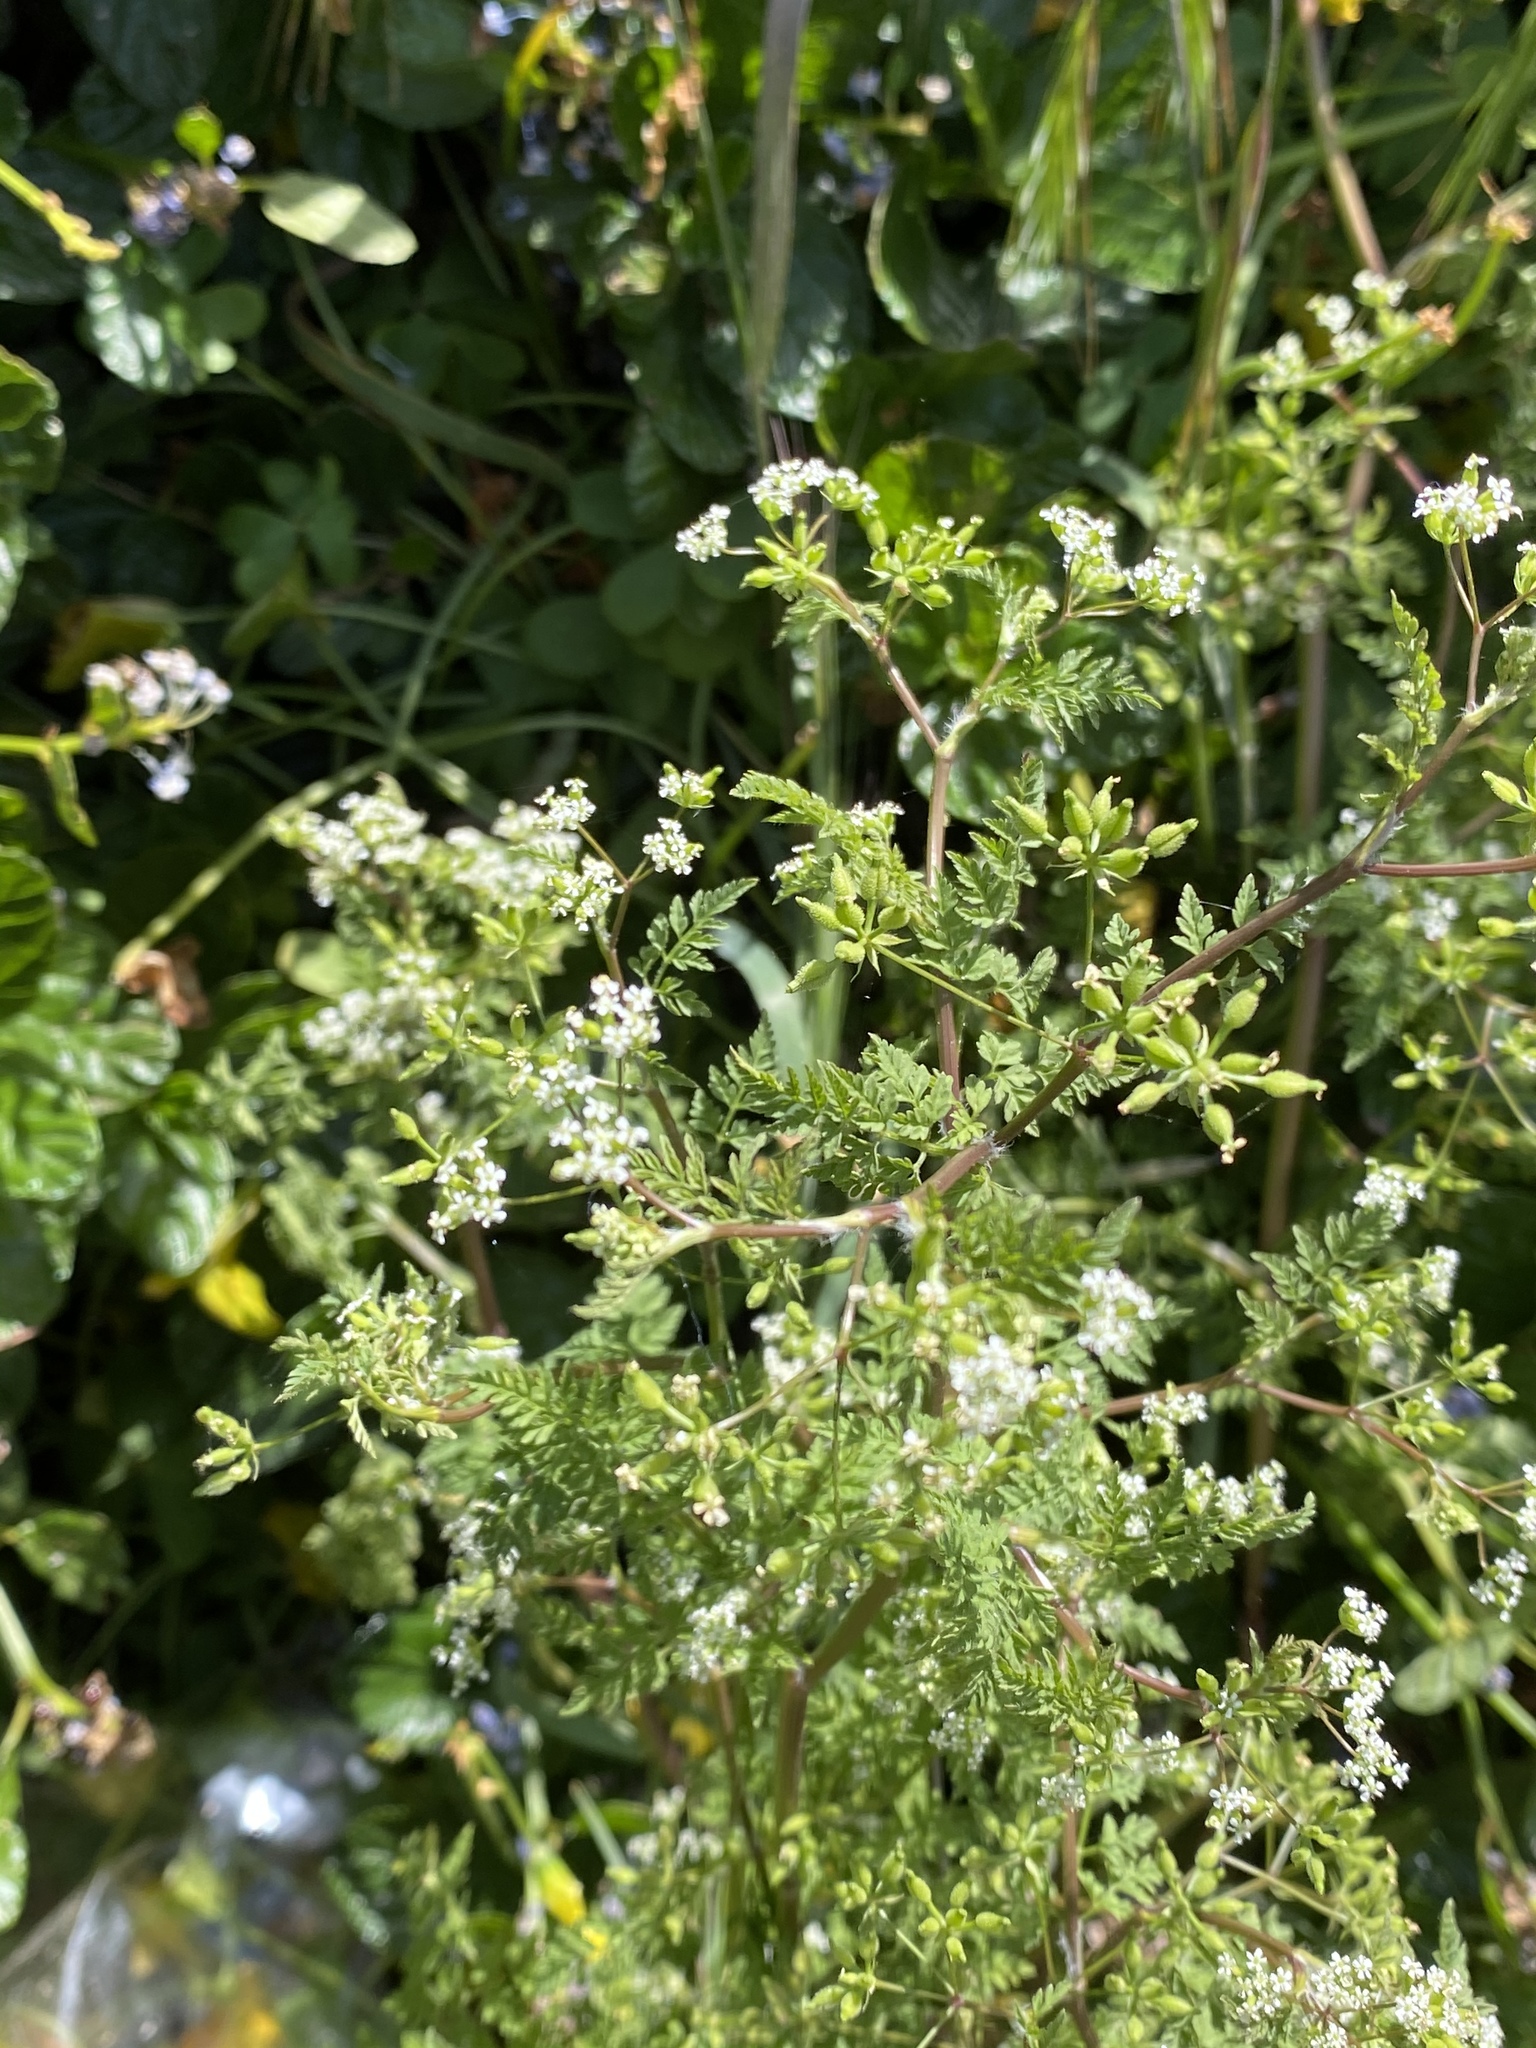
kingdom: Plantae
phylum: Tracheophyta
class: Magnoliopsida
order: Apiales
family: Apiaceae
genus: Anthriscus
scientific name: Anthriscus caucalis
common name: Bur chervil
